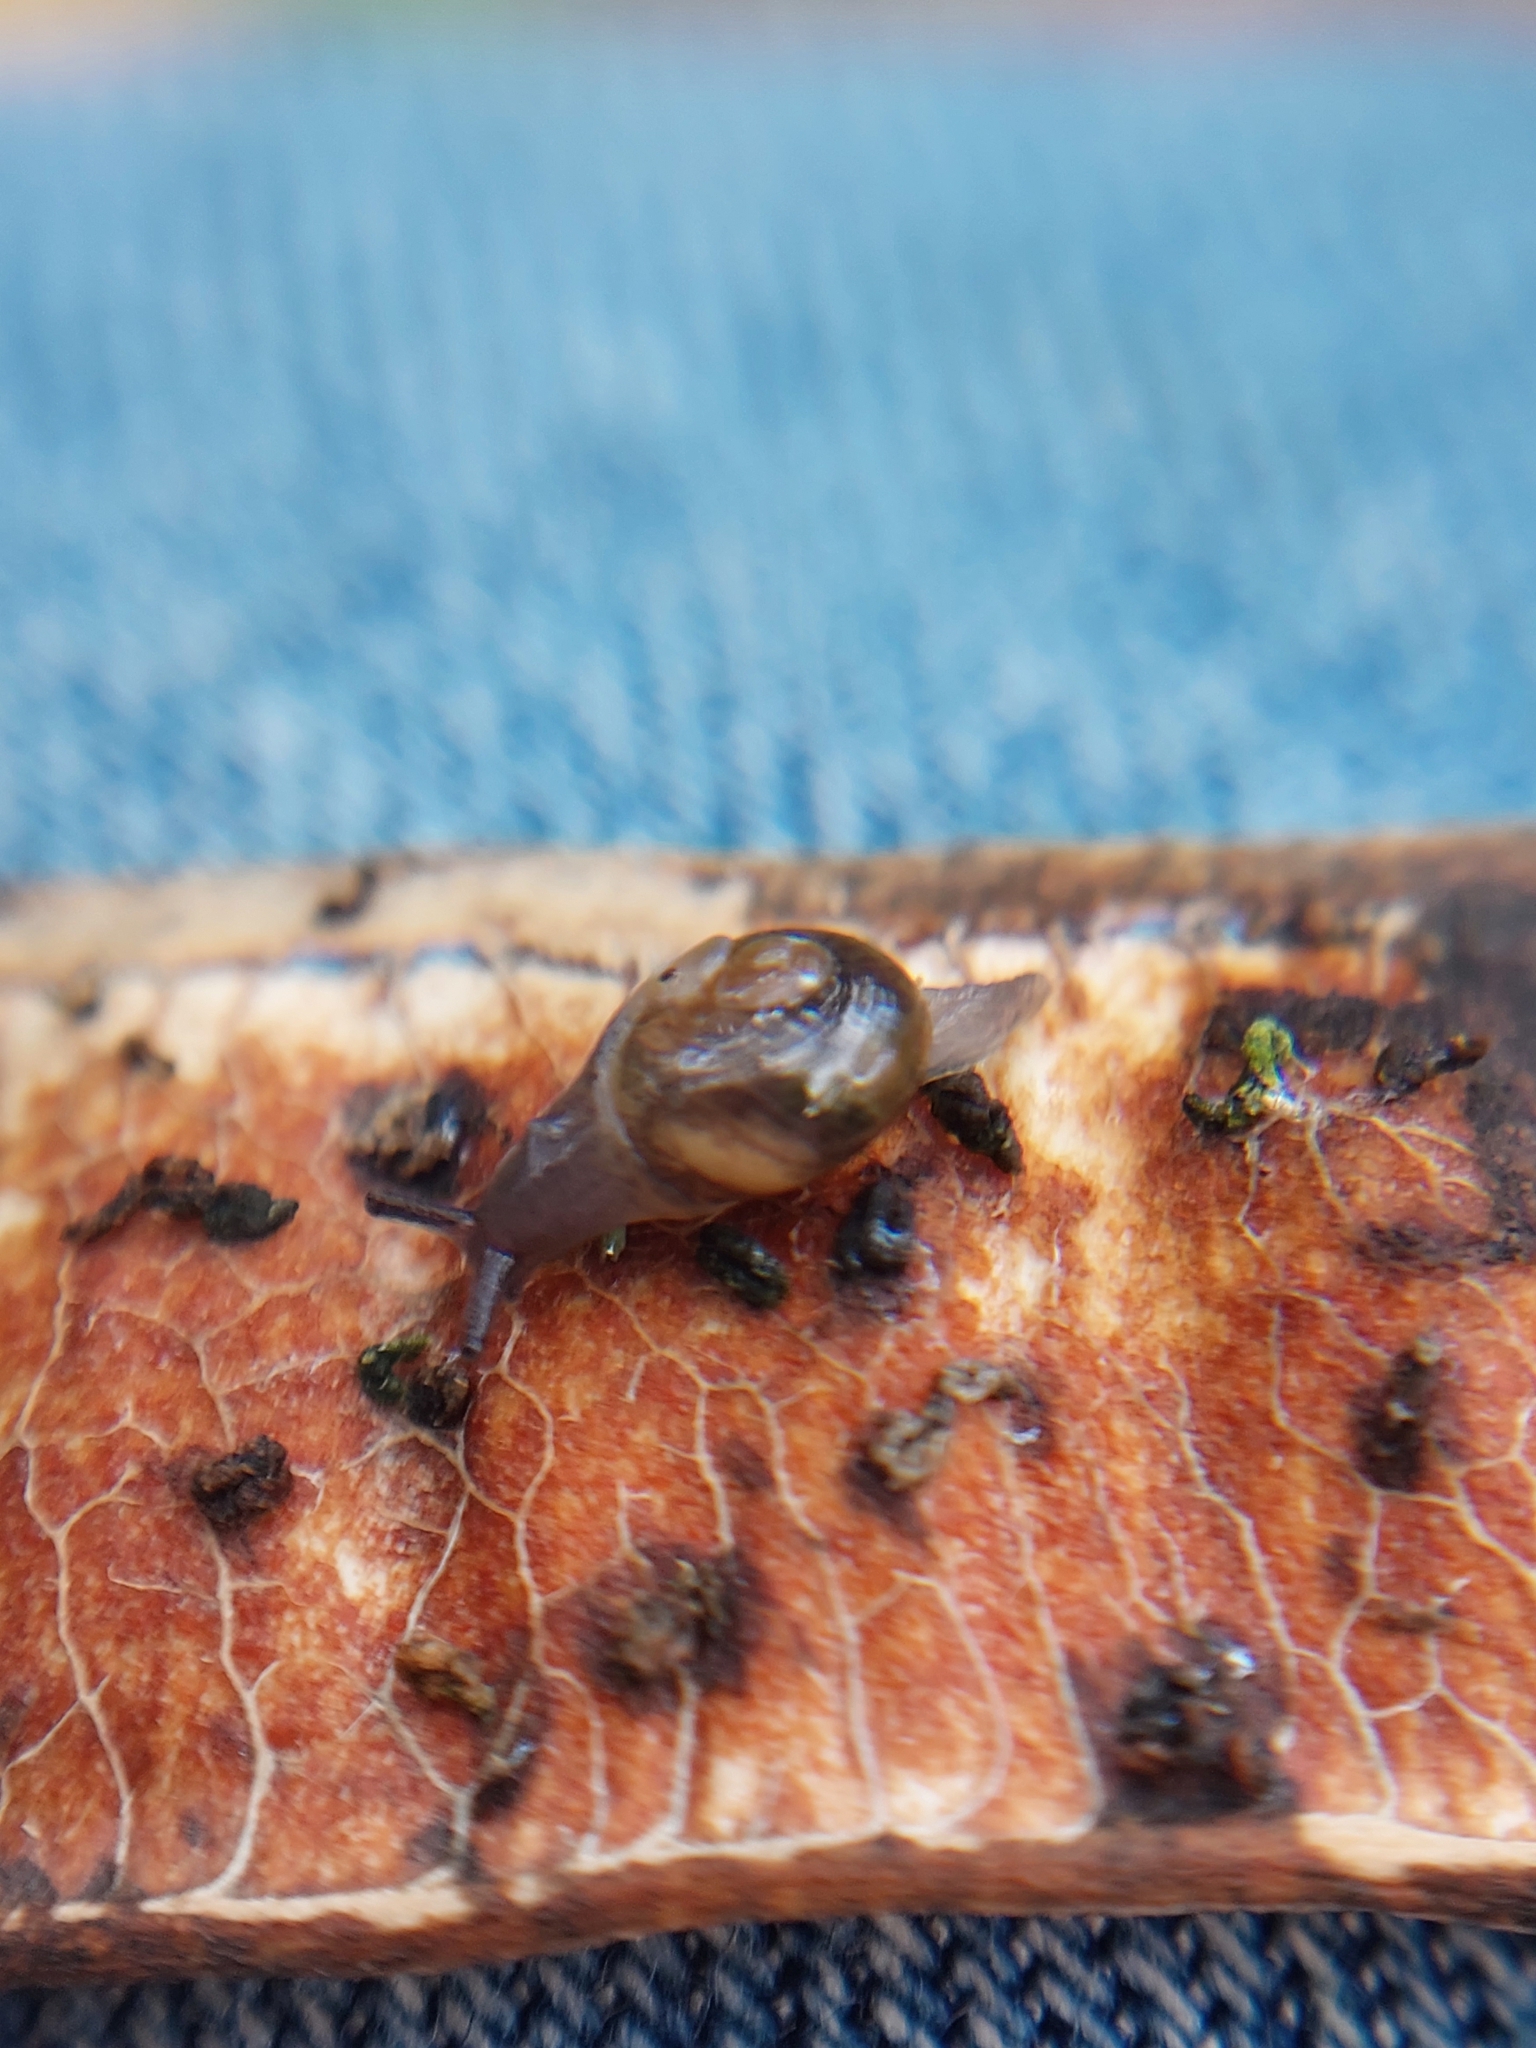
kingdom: Animalia
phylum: Mollusca
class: Gastropoda
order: Stylommatophora
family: Vitrinidae
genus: Vitrina
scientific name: Vitrina pellucida
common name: Pellucid glass snail
